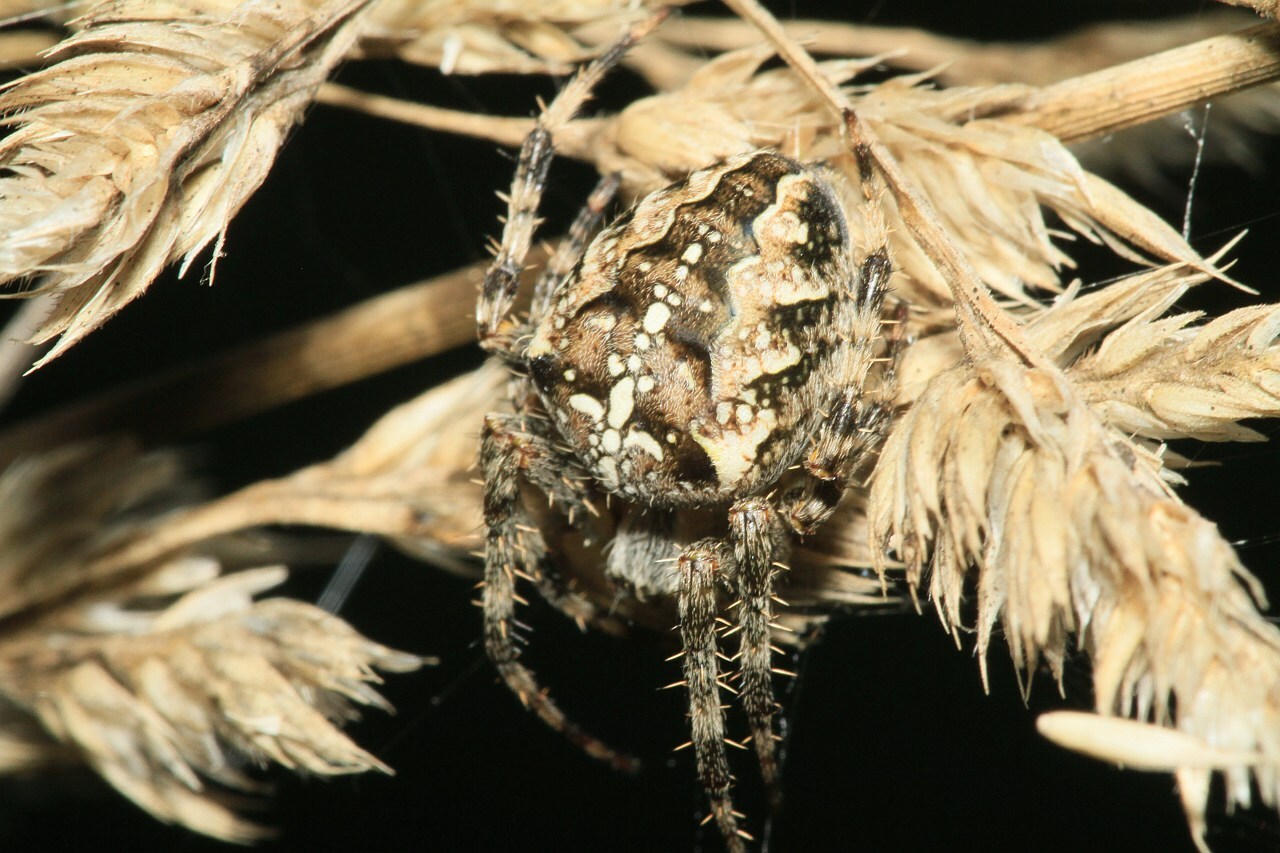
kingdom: Animalia
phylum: Arthropoda
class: Arachnida
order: Araneae
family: Araneidae
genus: Araneus
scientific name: Araneus diadematus
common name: Cross orbweaver
